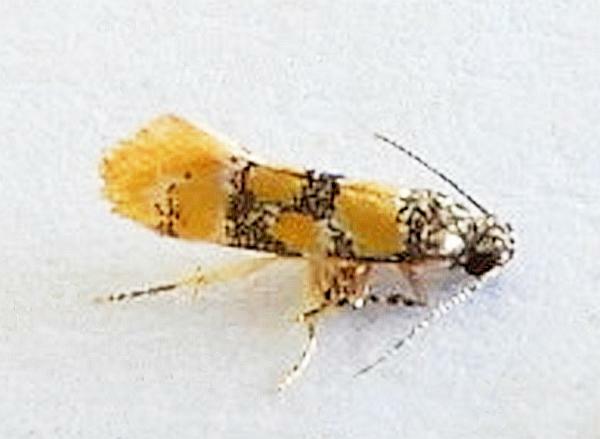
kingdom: Animalia
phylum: Arthropoda
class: Insecta
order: Lepidoptera
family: Oecophoridae
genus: Decantha
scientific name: Decantha stecia
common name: Small decantha moth
